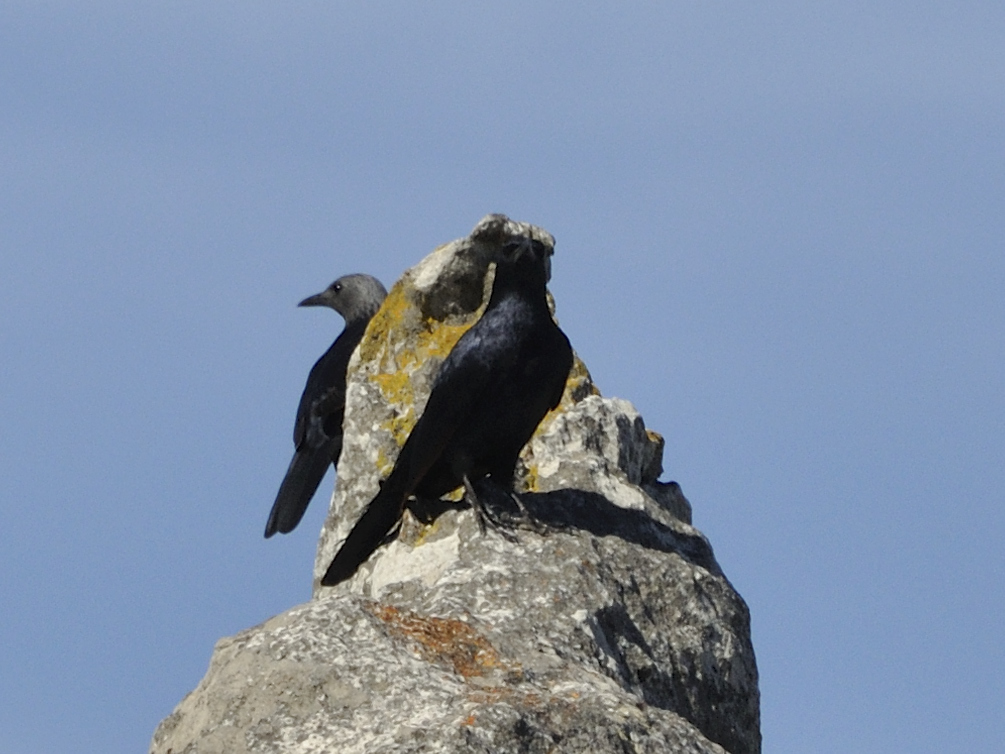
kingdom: Animalia
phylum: Chordata
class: Aves
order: Passeriformes
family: Sturnidae
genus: Onychognathus
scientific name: Onychognathus morio
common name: Red-winged starling
